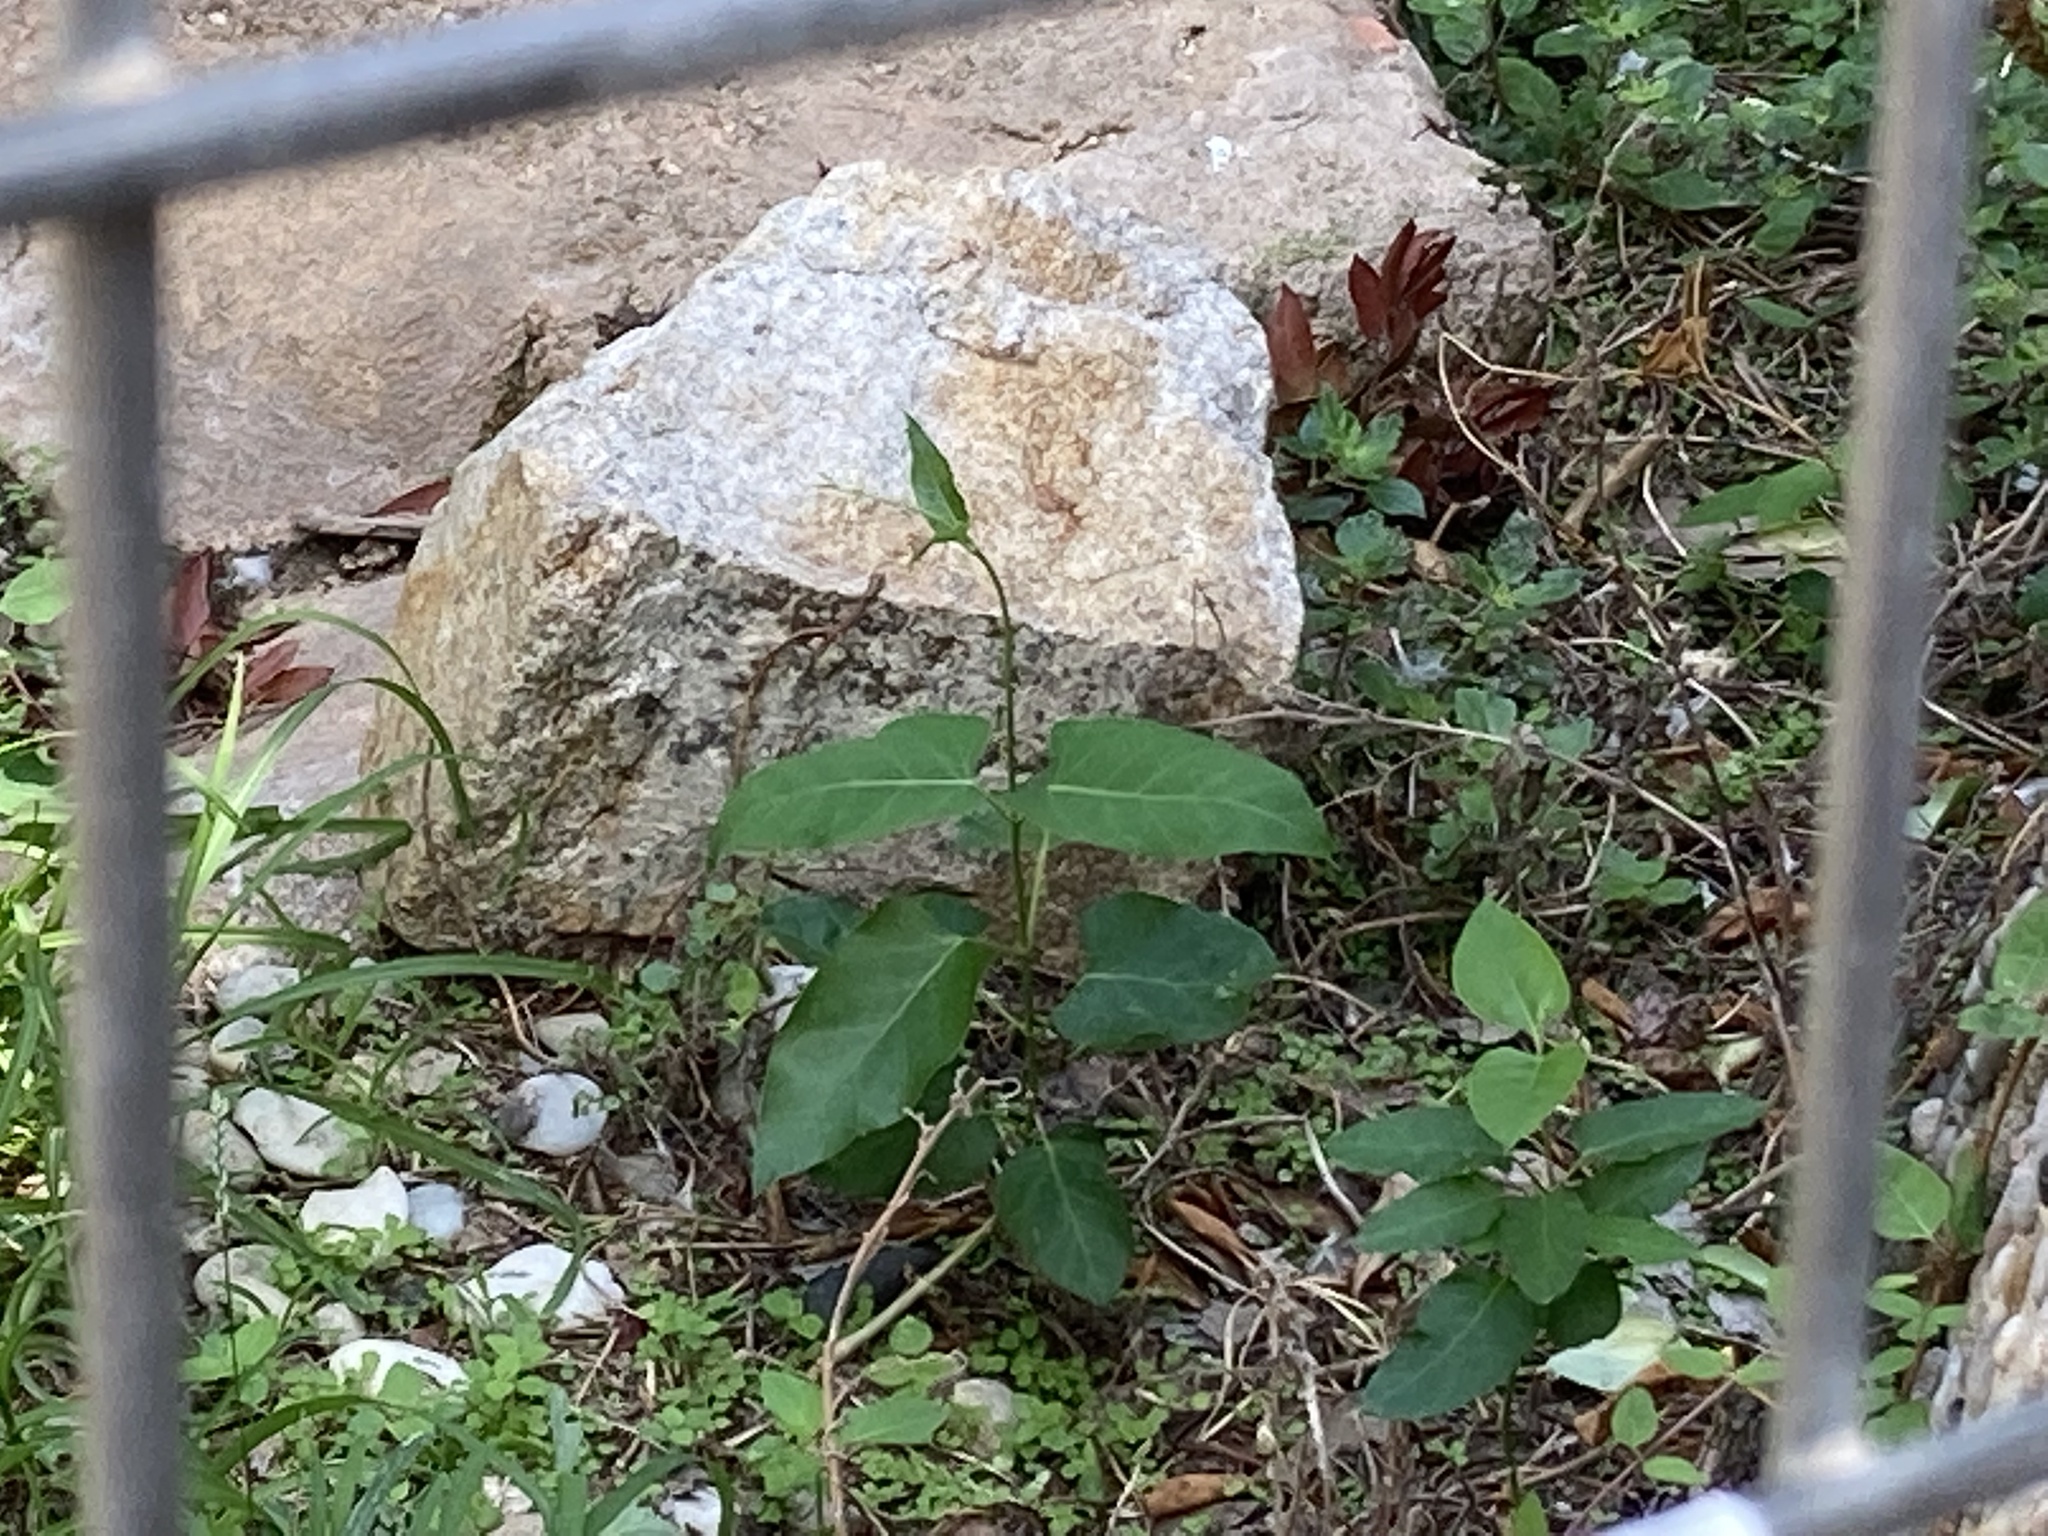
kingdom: Plantae
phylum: Tracheophyta
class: Magnoliopsida
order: Gentianales
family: Apocynaceae
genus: Araujia
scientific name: Araujia sericifera
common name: White bladderflower
